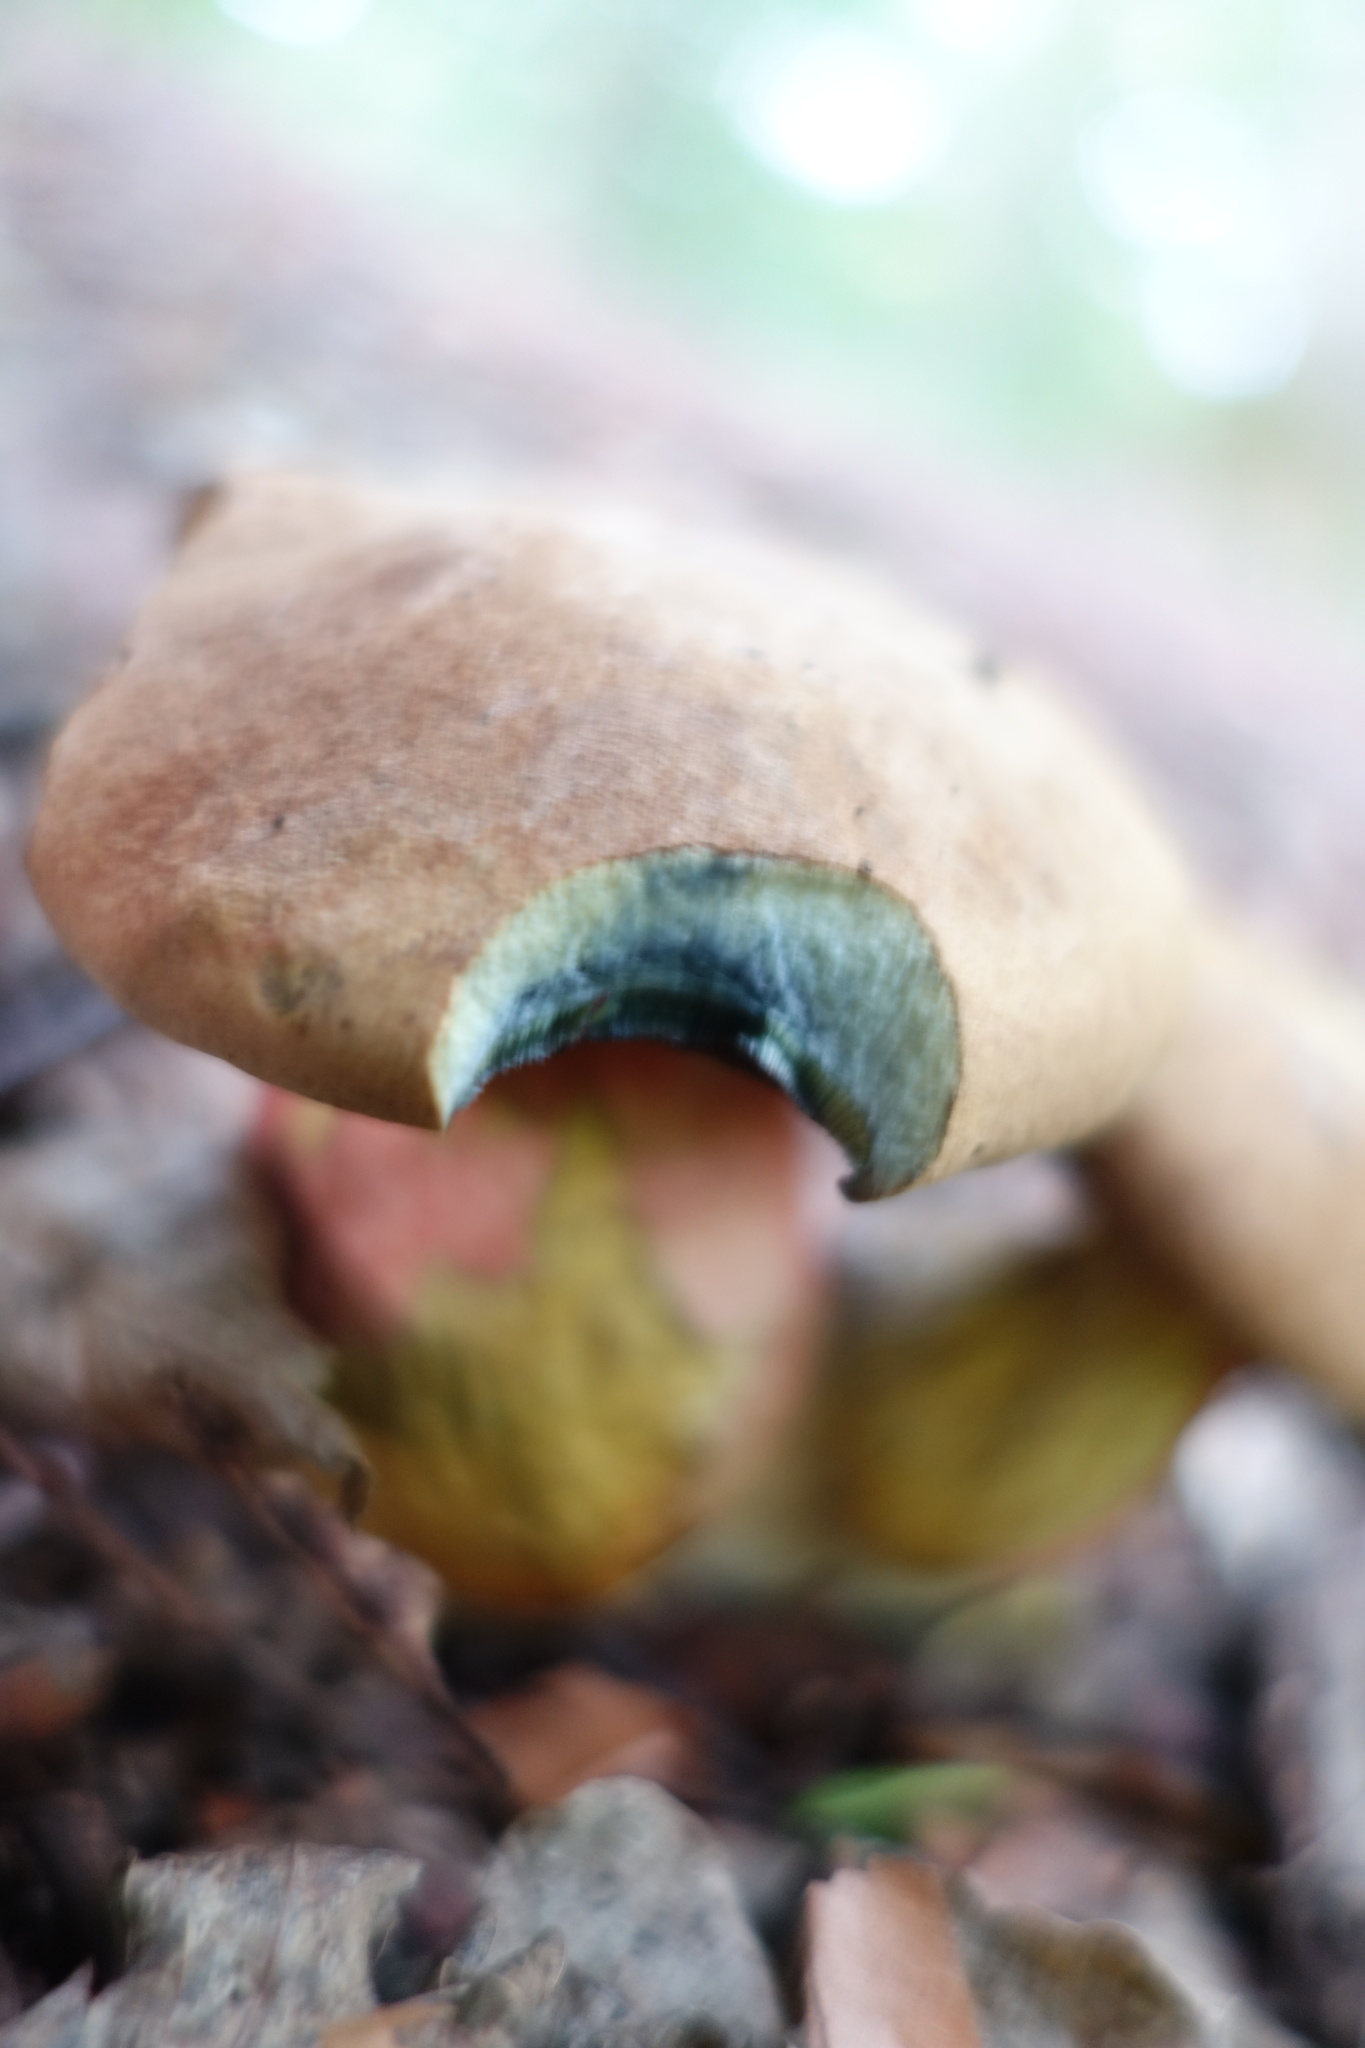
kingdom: Fungi
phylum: Basidiomycota
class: Agaricomycetes
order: Boletales
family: Boletaceae
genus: Neoboletus
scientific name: Neoboletus erythropus
